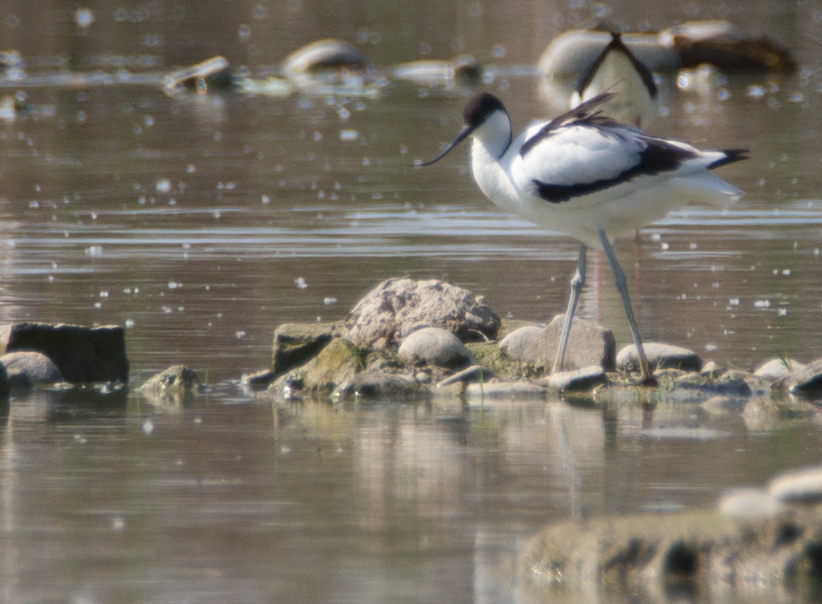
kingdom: Animalia
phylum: Chordata
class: Aves
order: Charadriiformes
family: Recurvirostridae
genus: Recurvirostra
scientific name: Recurvirostra avosetta
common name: Pied avocet
